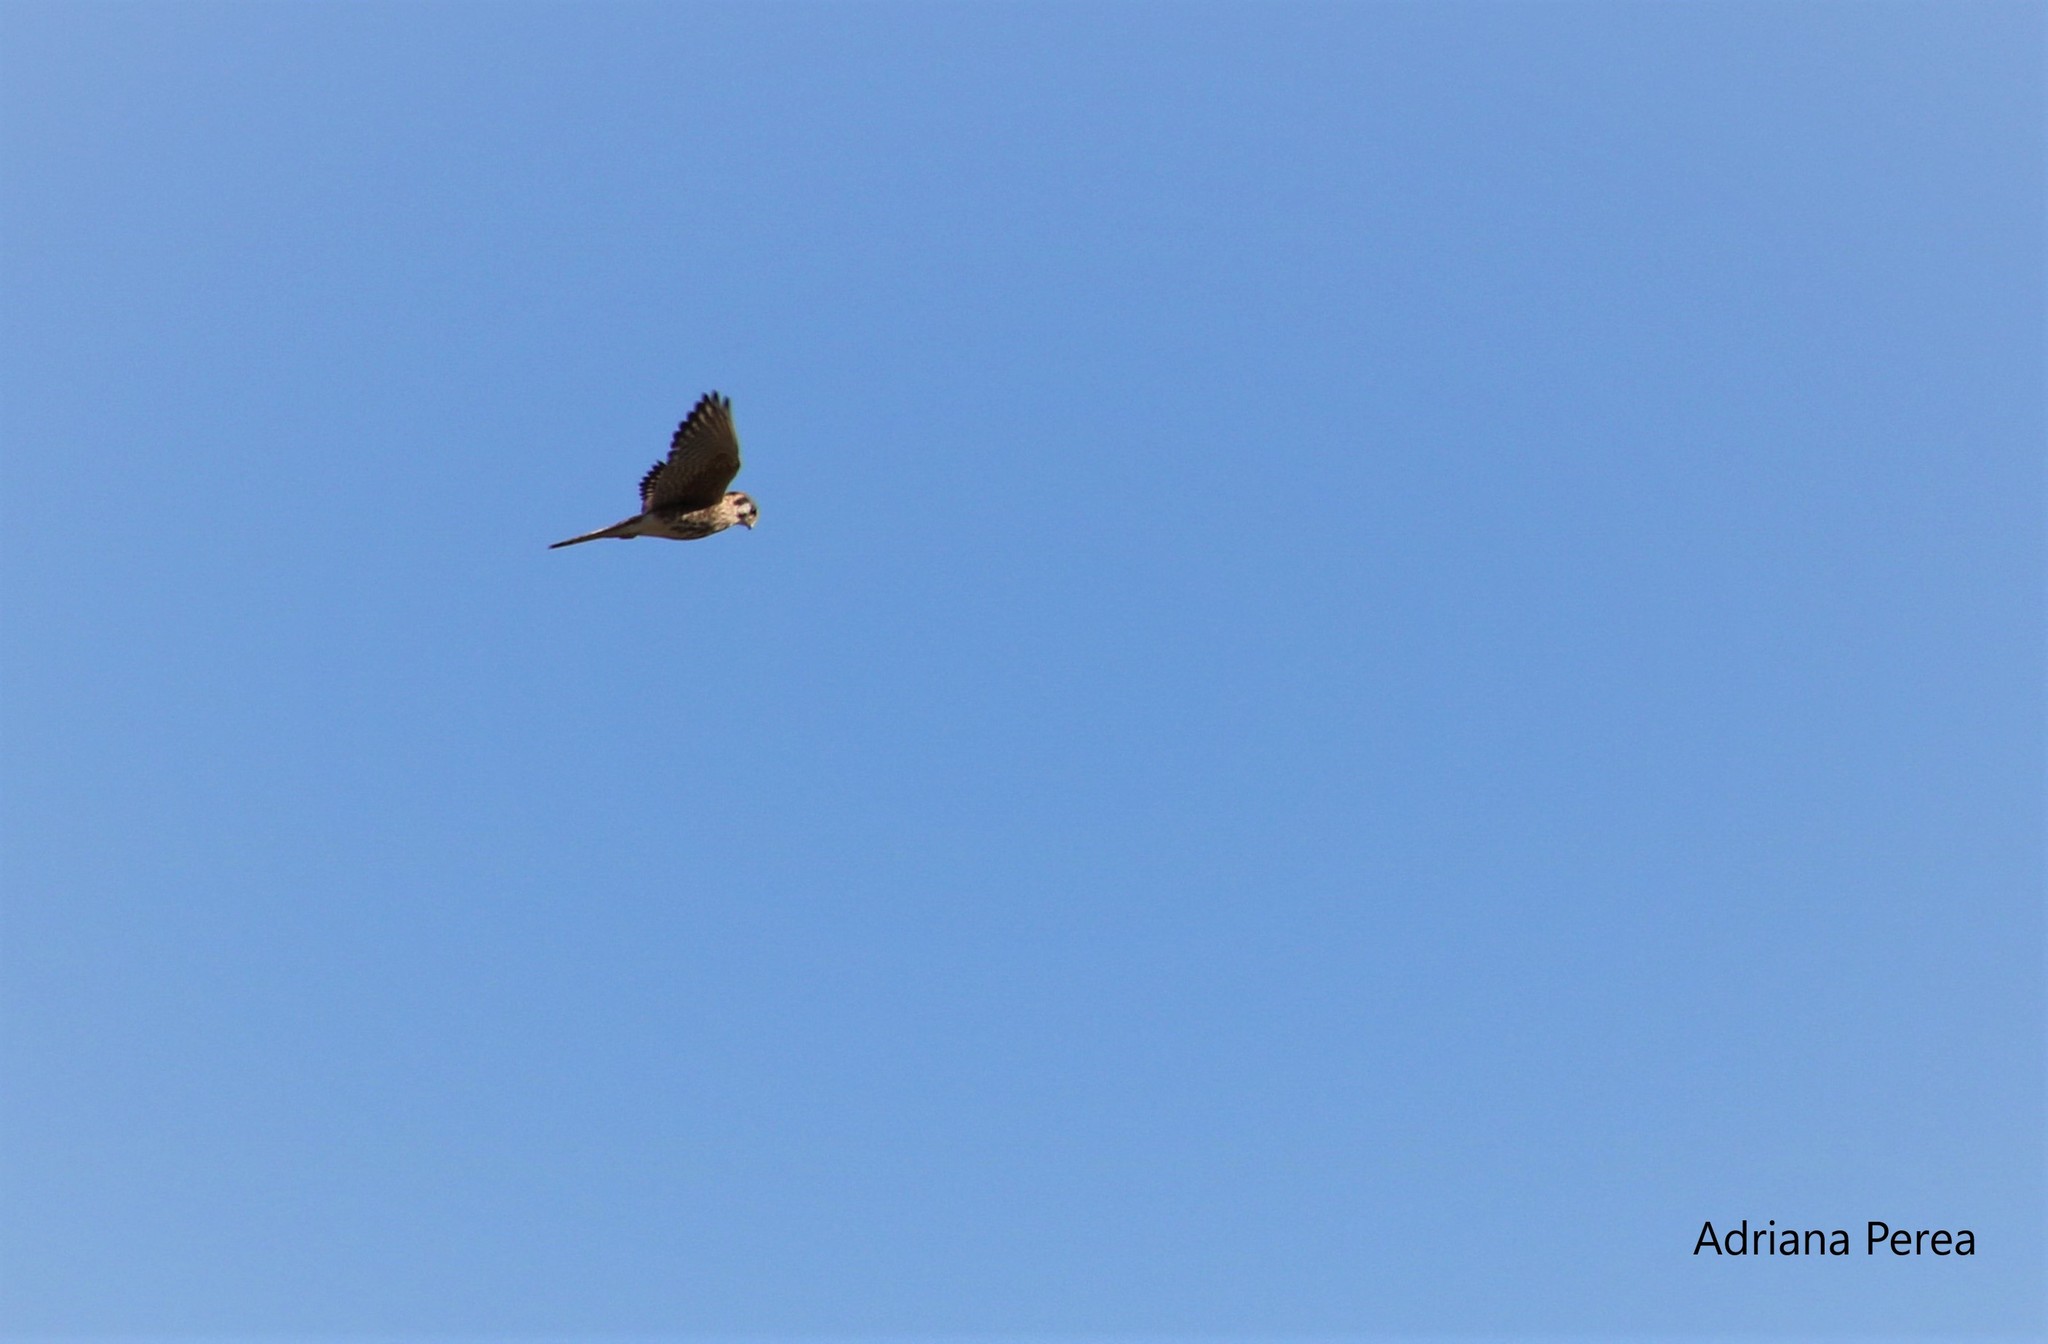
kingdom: Animalia
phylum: Chordata
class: Aves
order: Falconiformes
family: Falconidae
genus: Falco
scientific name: Falco sparverius
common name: American kestrel
